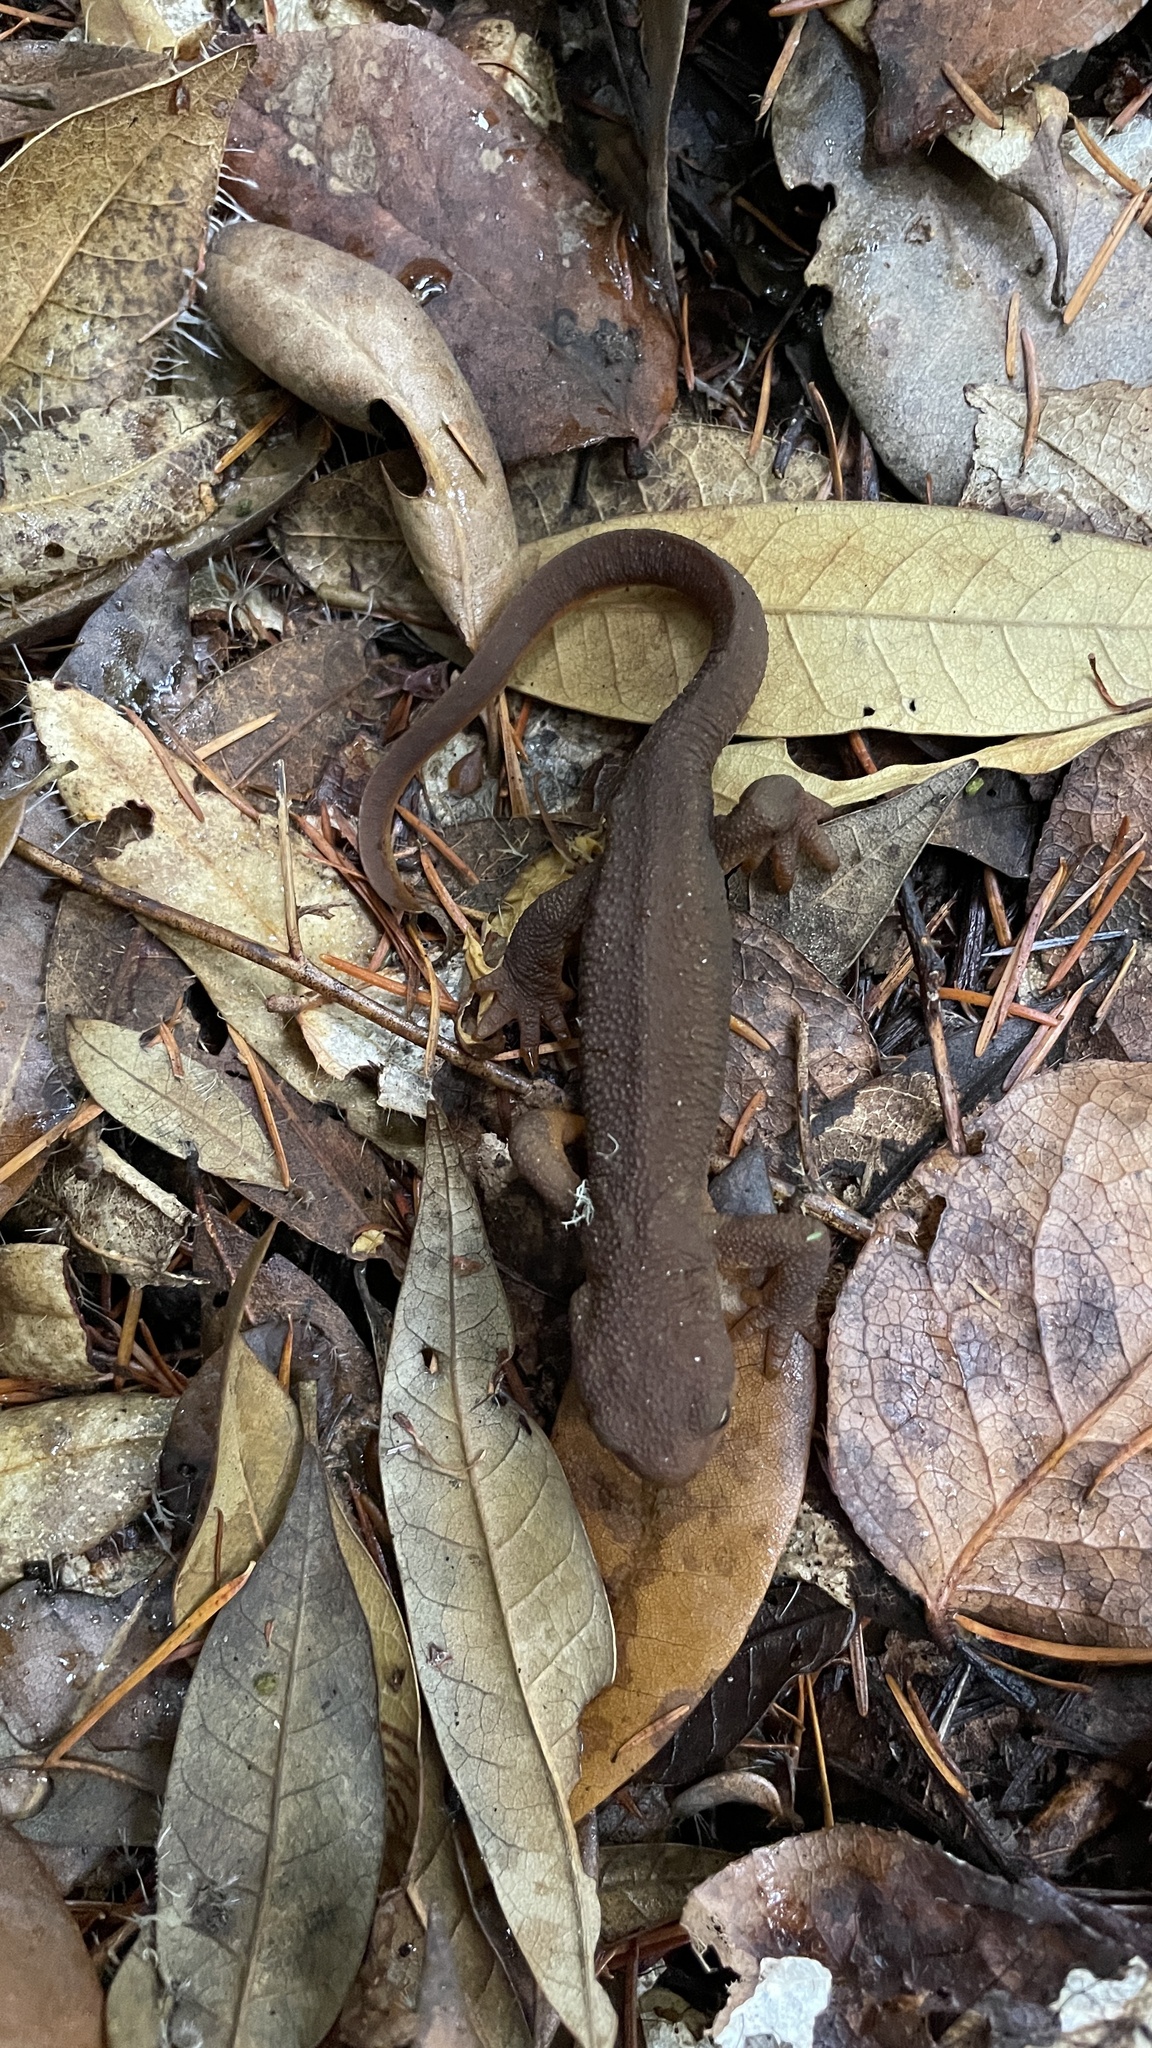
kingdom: Animalia
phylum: Chordata
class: Amphibia
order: Caudata
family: Salamandridae
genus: Taricha
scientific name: Taricha granulosa
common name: Roughskin newt
